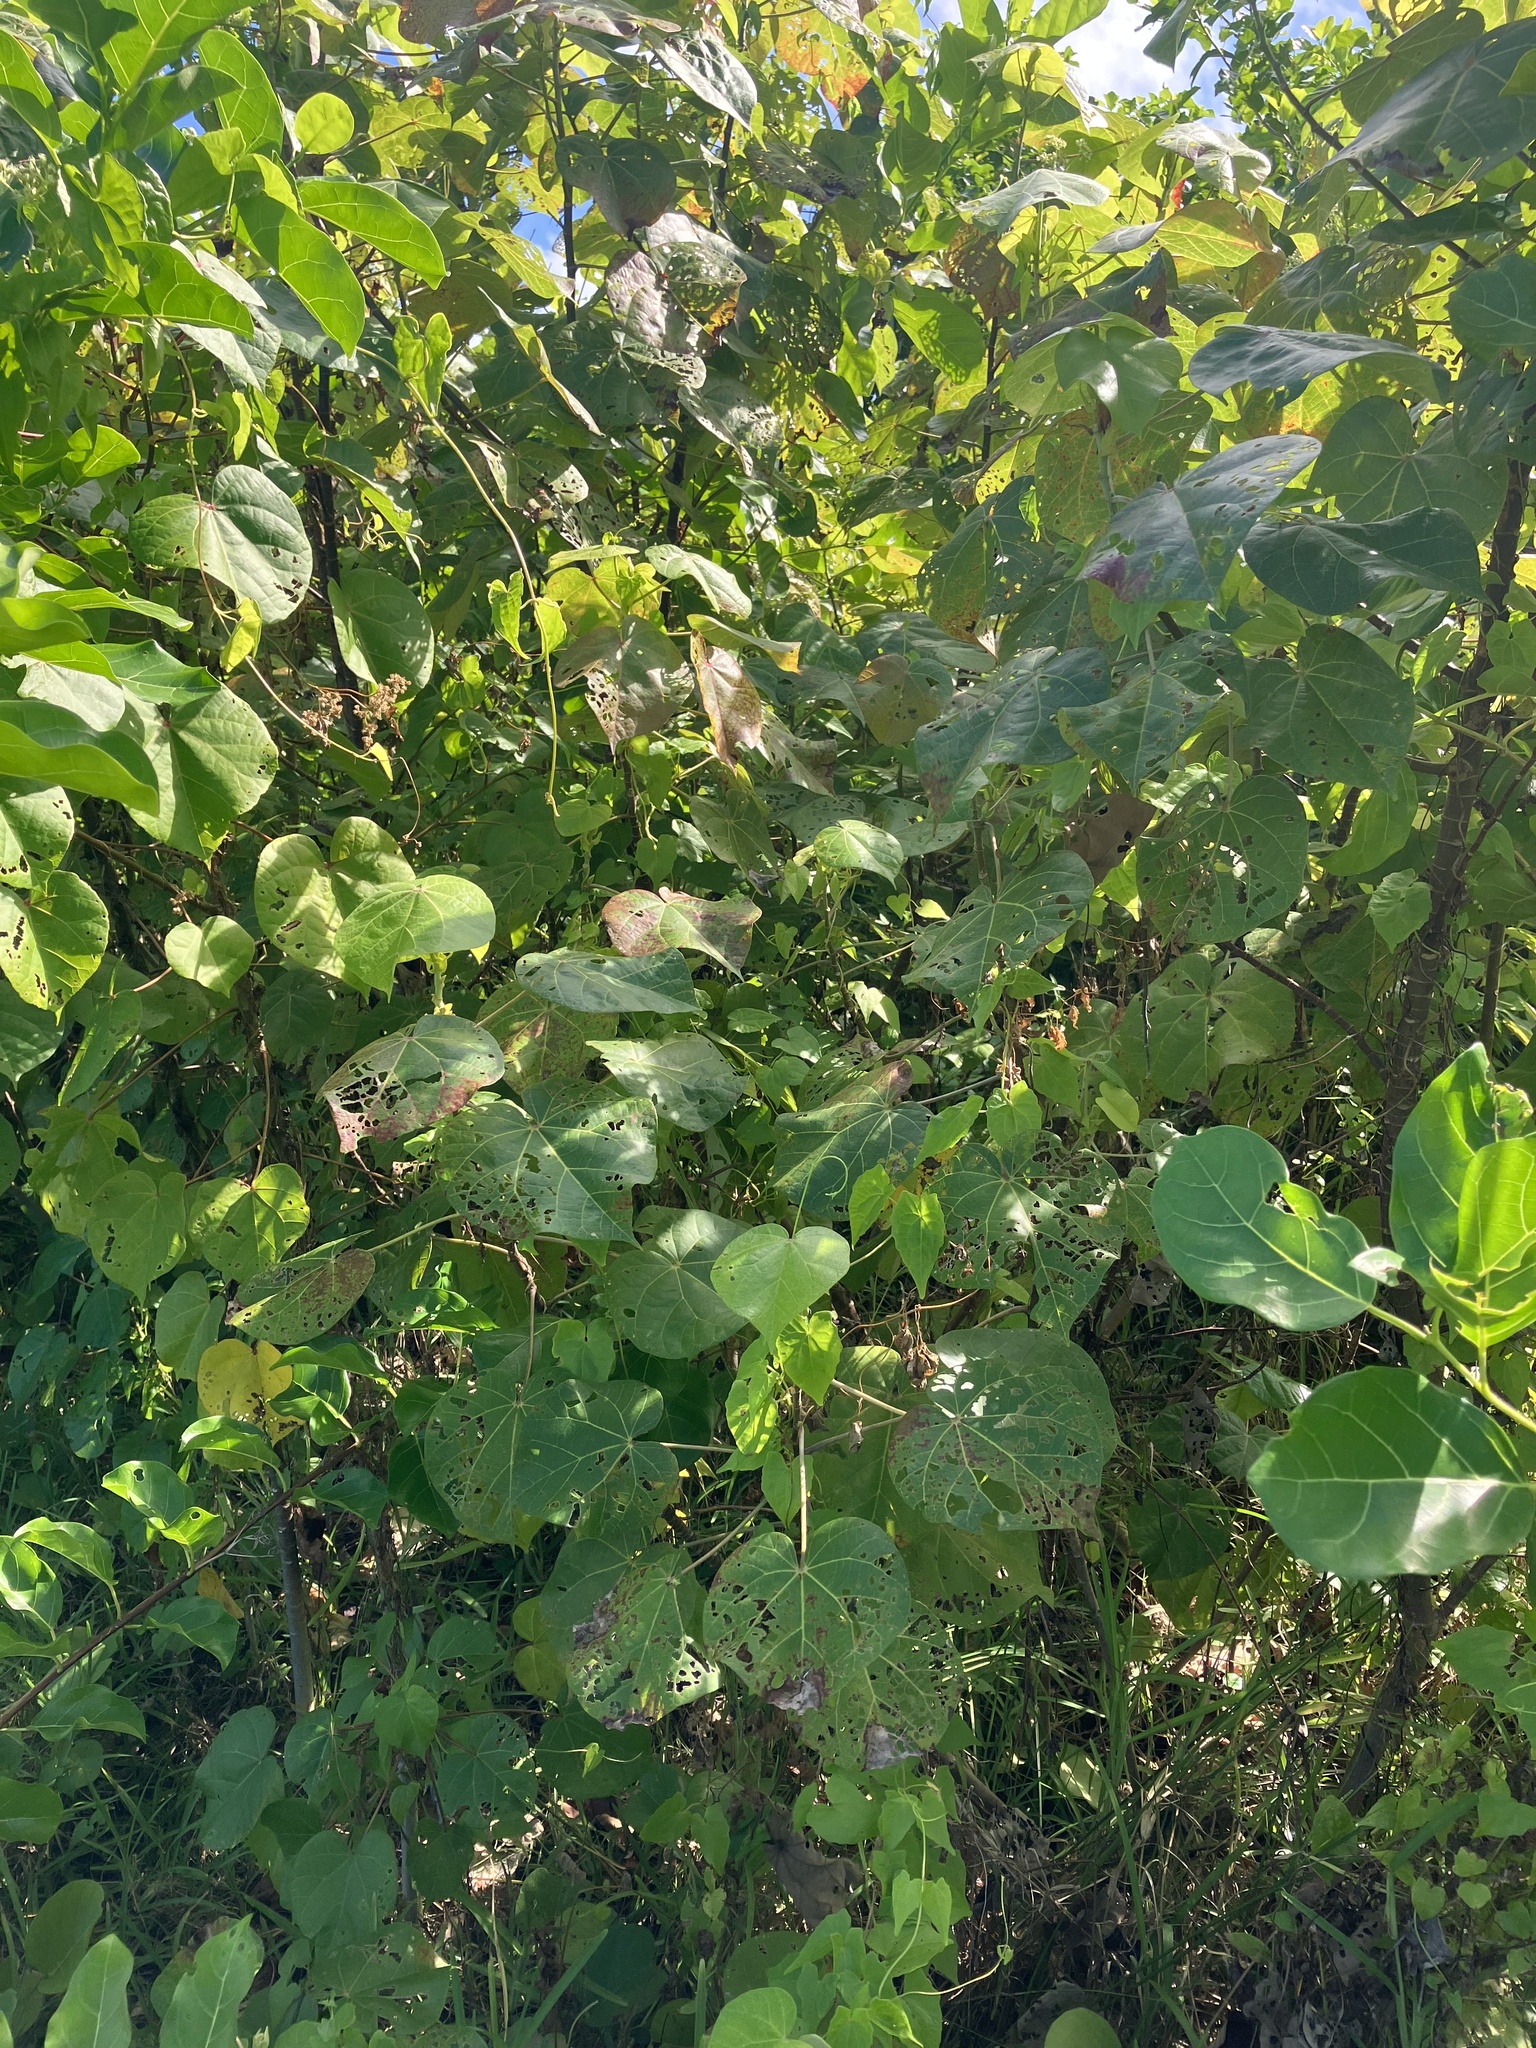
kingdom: Plantae
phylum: Tracheophyta
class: Magnoliopsida
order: Malvales
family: Malvaceae
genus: Talipariti
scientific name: Talipariti tiliaceum
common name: Sea hibiscus
